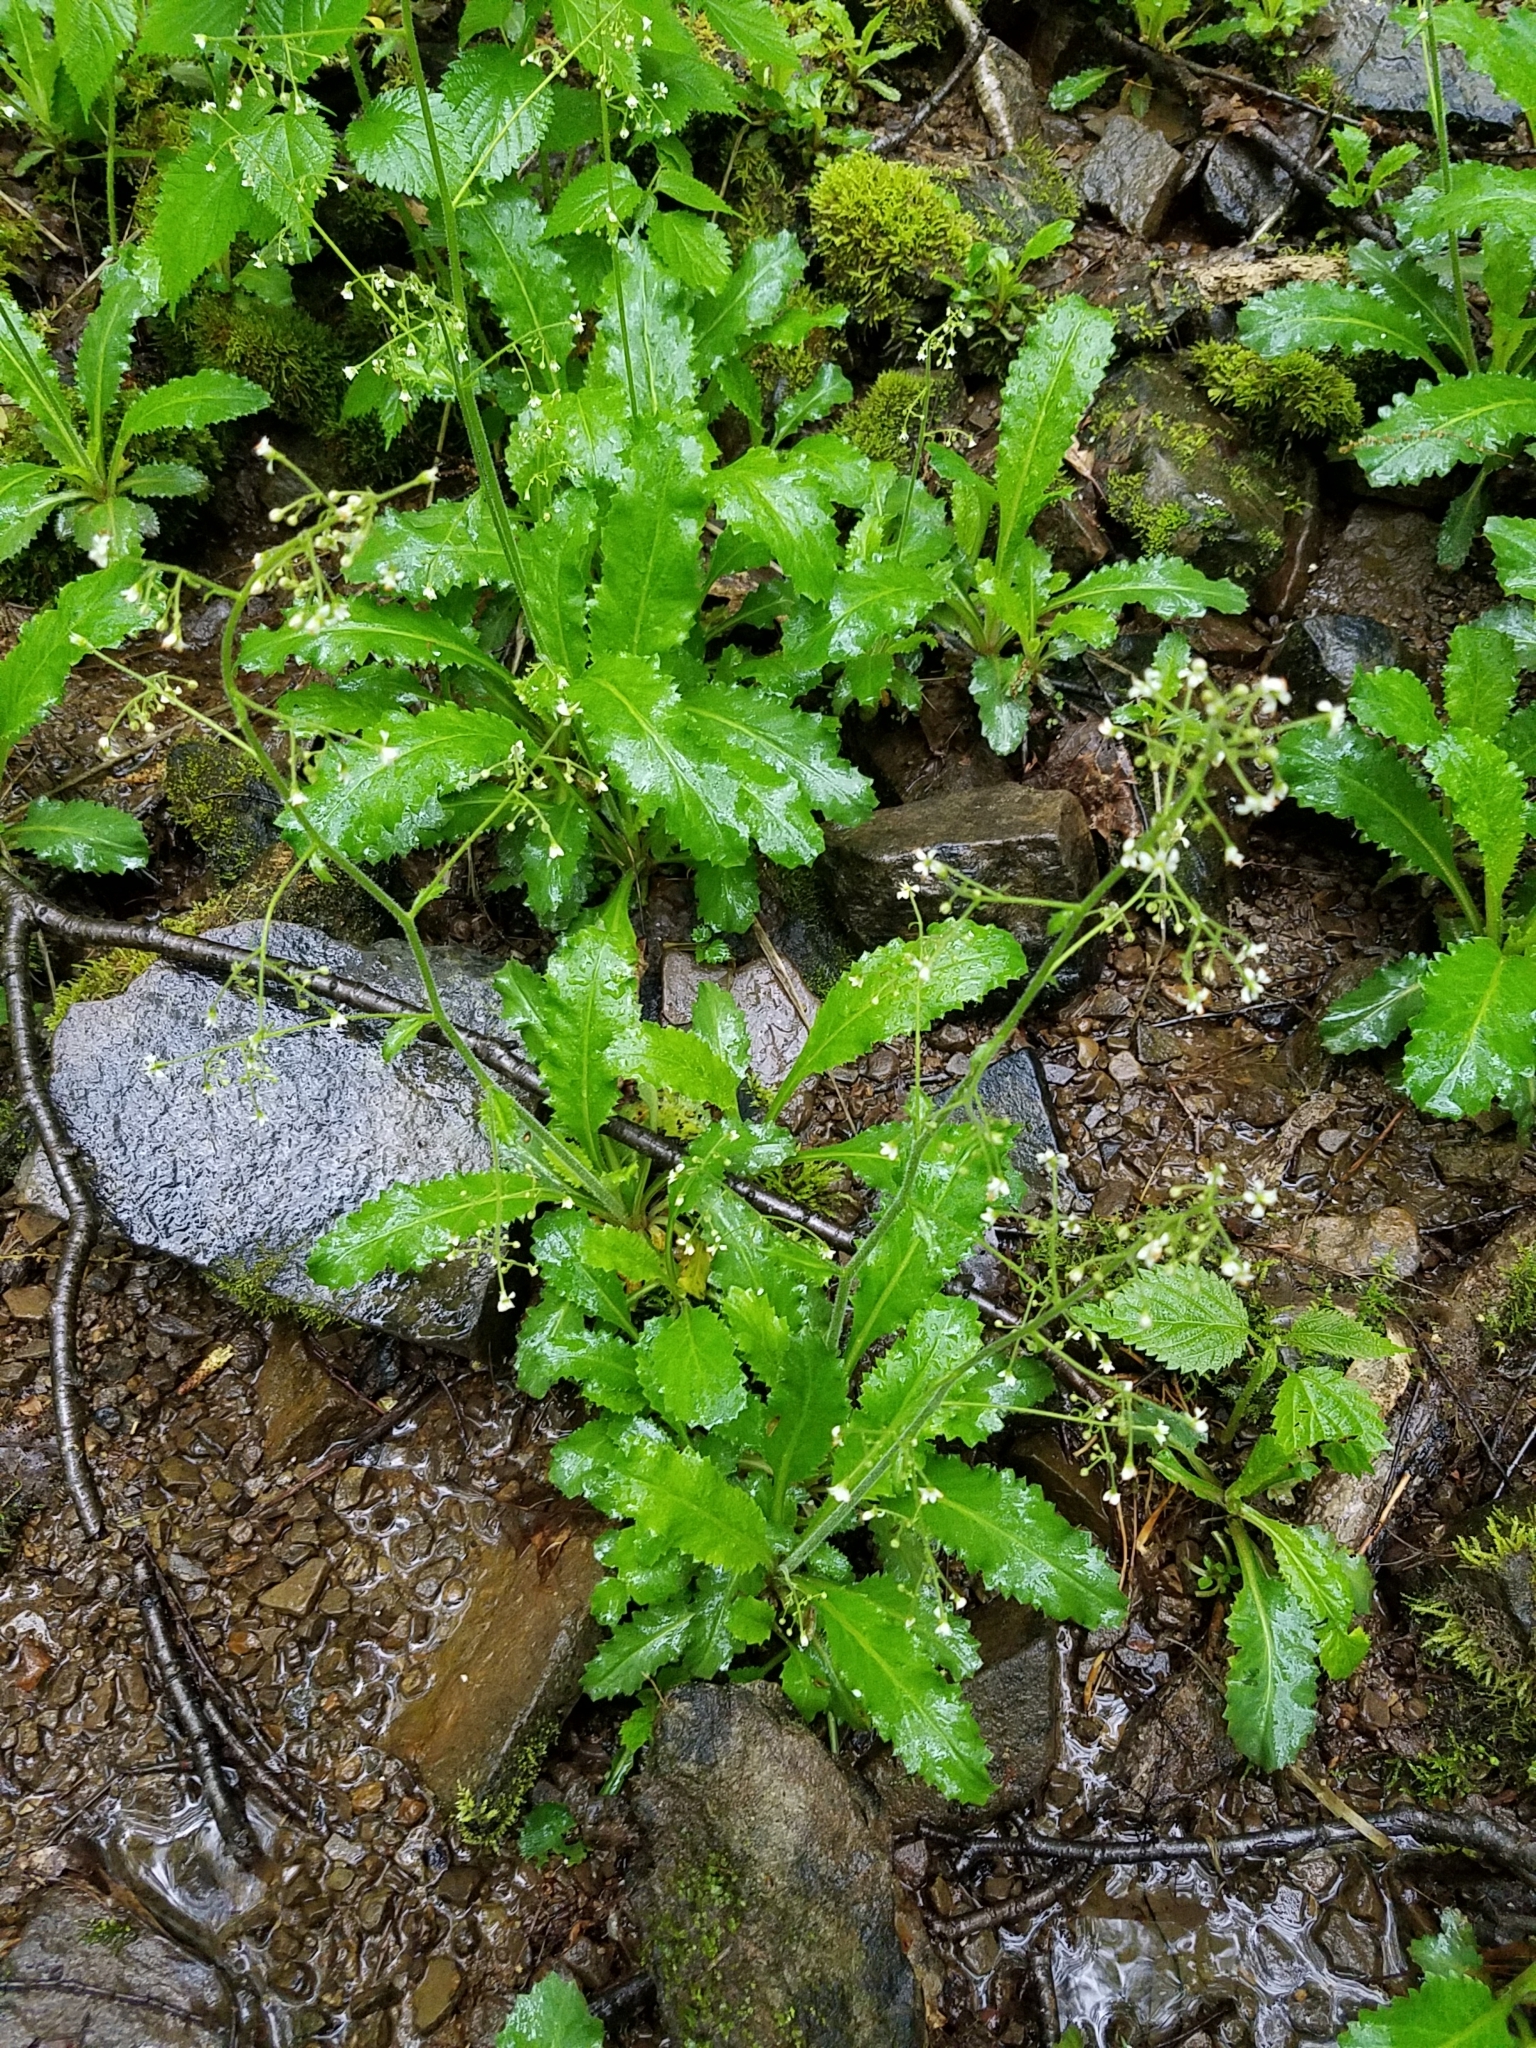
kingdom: Plantae
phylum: Tracheophyta
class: Magnoliopsida
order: Saxifragales
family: Saxifragaceae
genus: Micranthes
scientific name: Micranthes micranthidifolia
